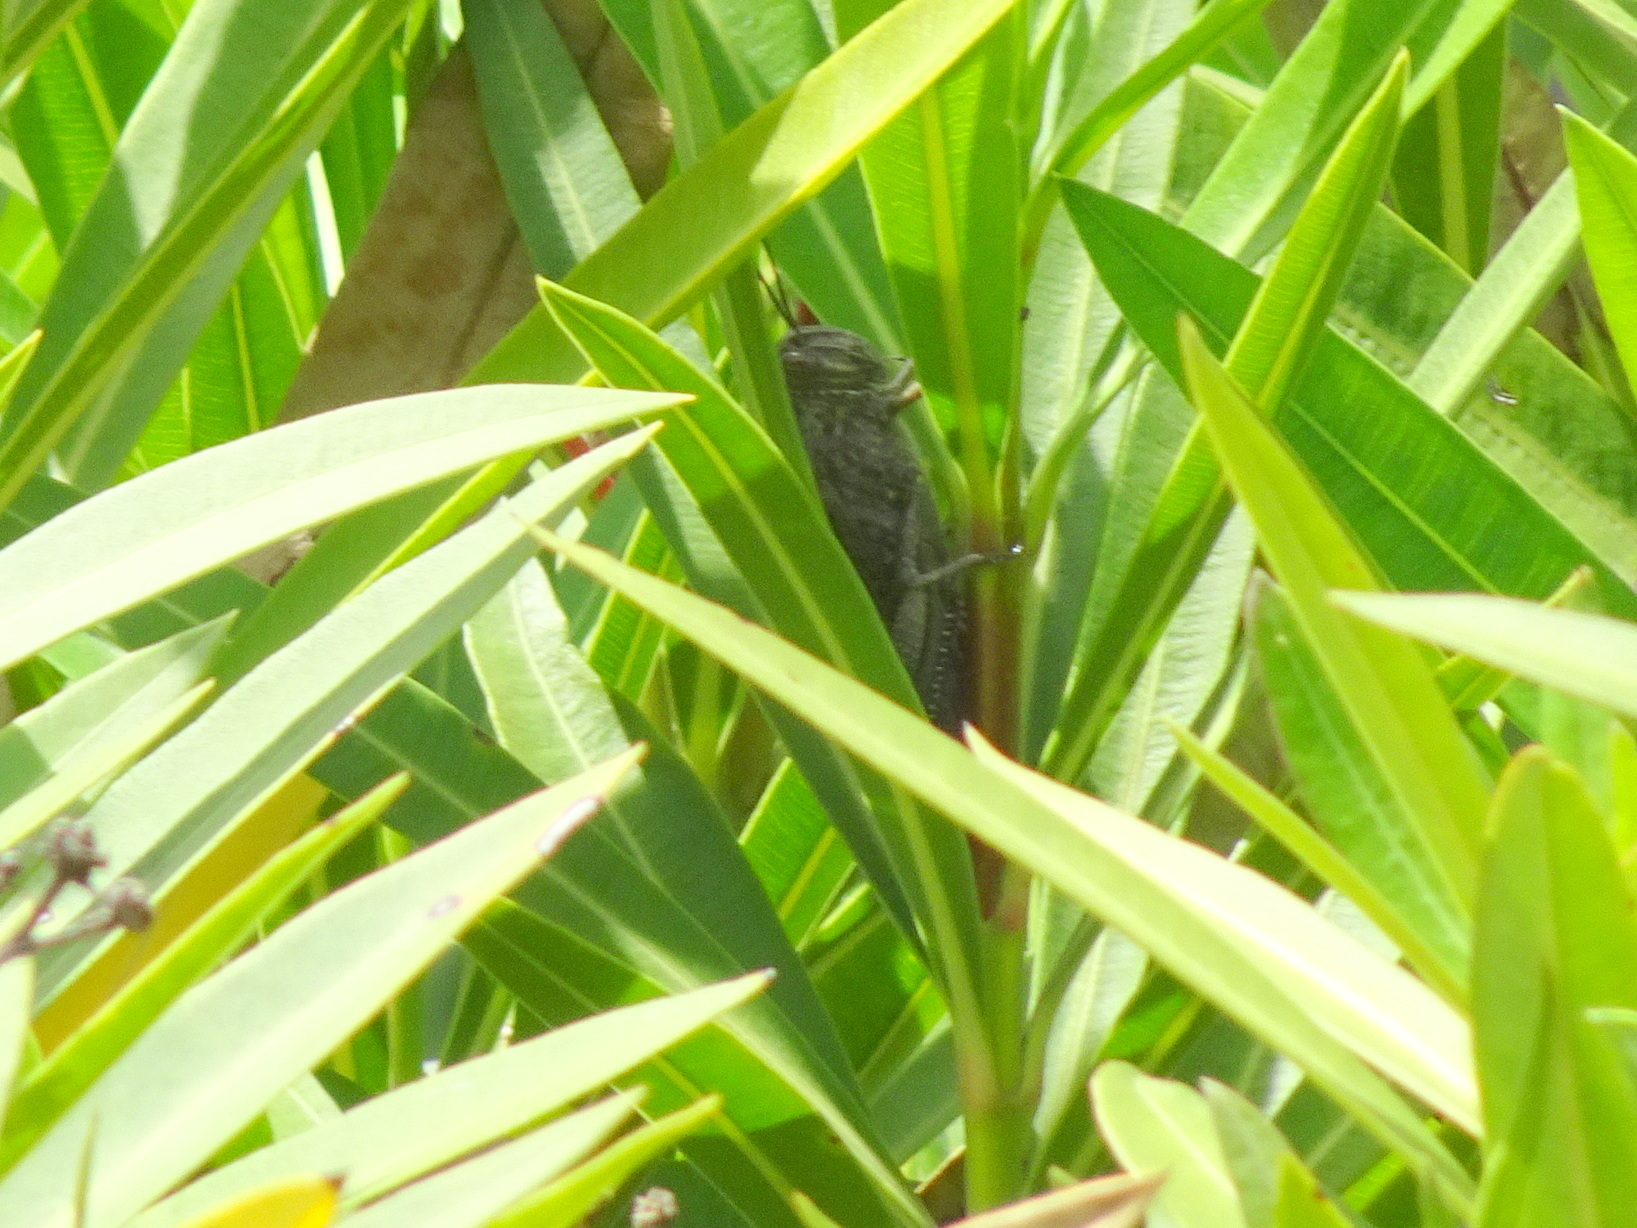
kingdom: Animalia
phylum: Arthropoda
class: Insecta
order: Orthoptera
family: Acrididae
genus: Anacridium
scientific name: Anacridium aegyptium
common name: Egyptian grasshopper
